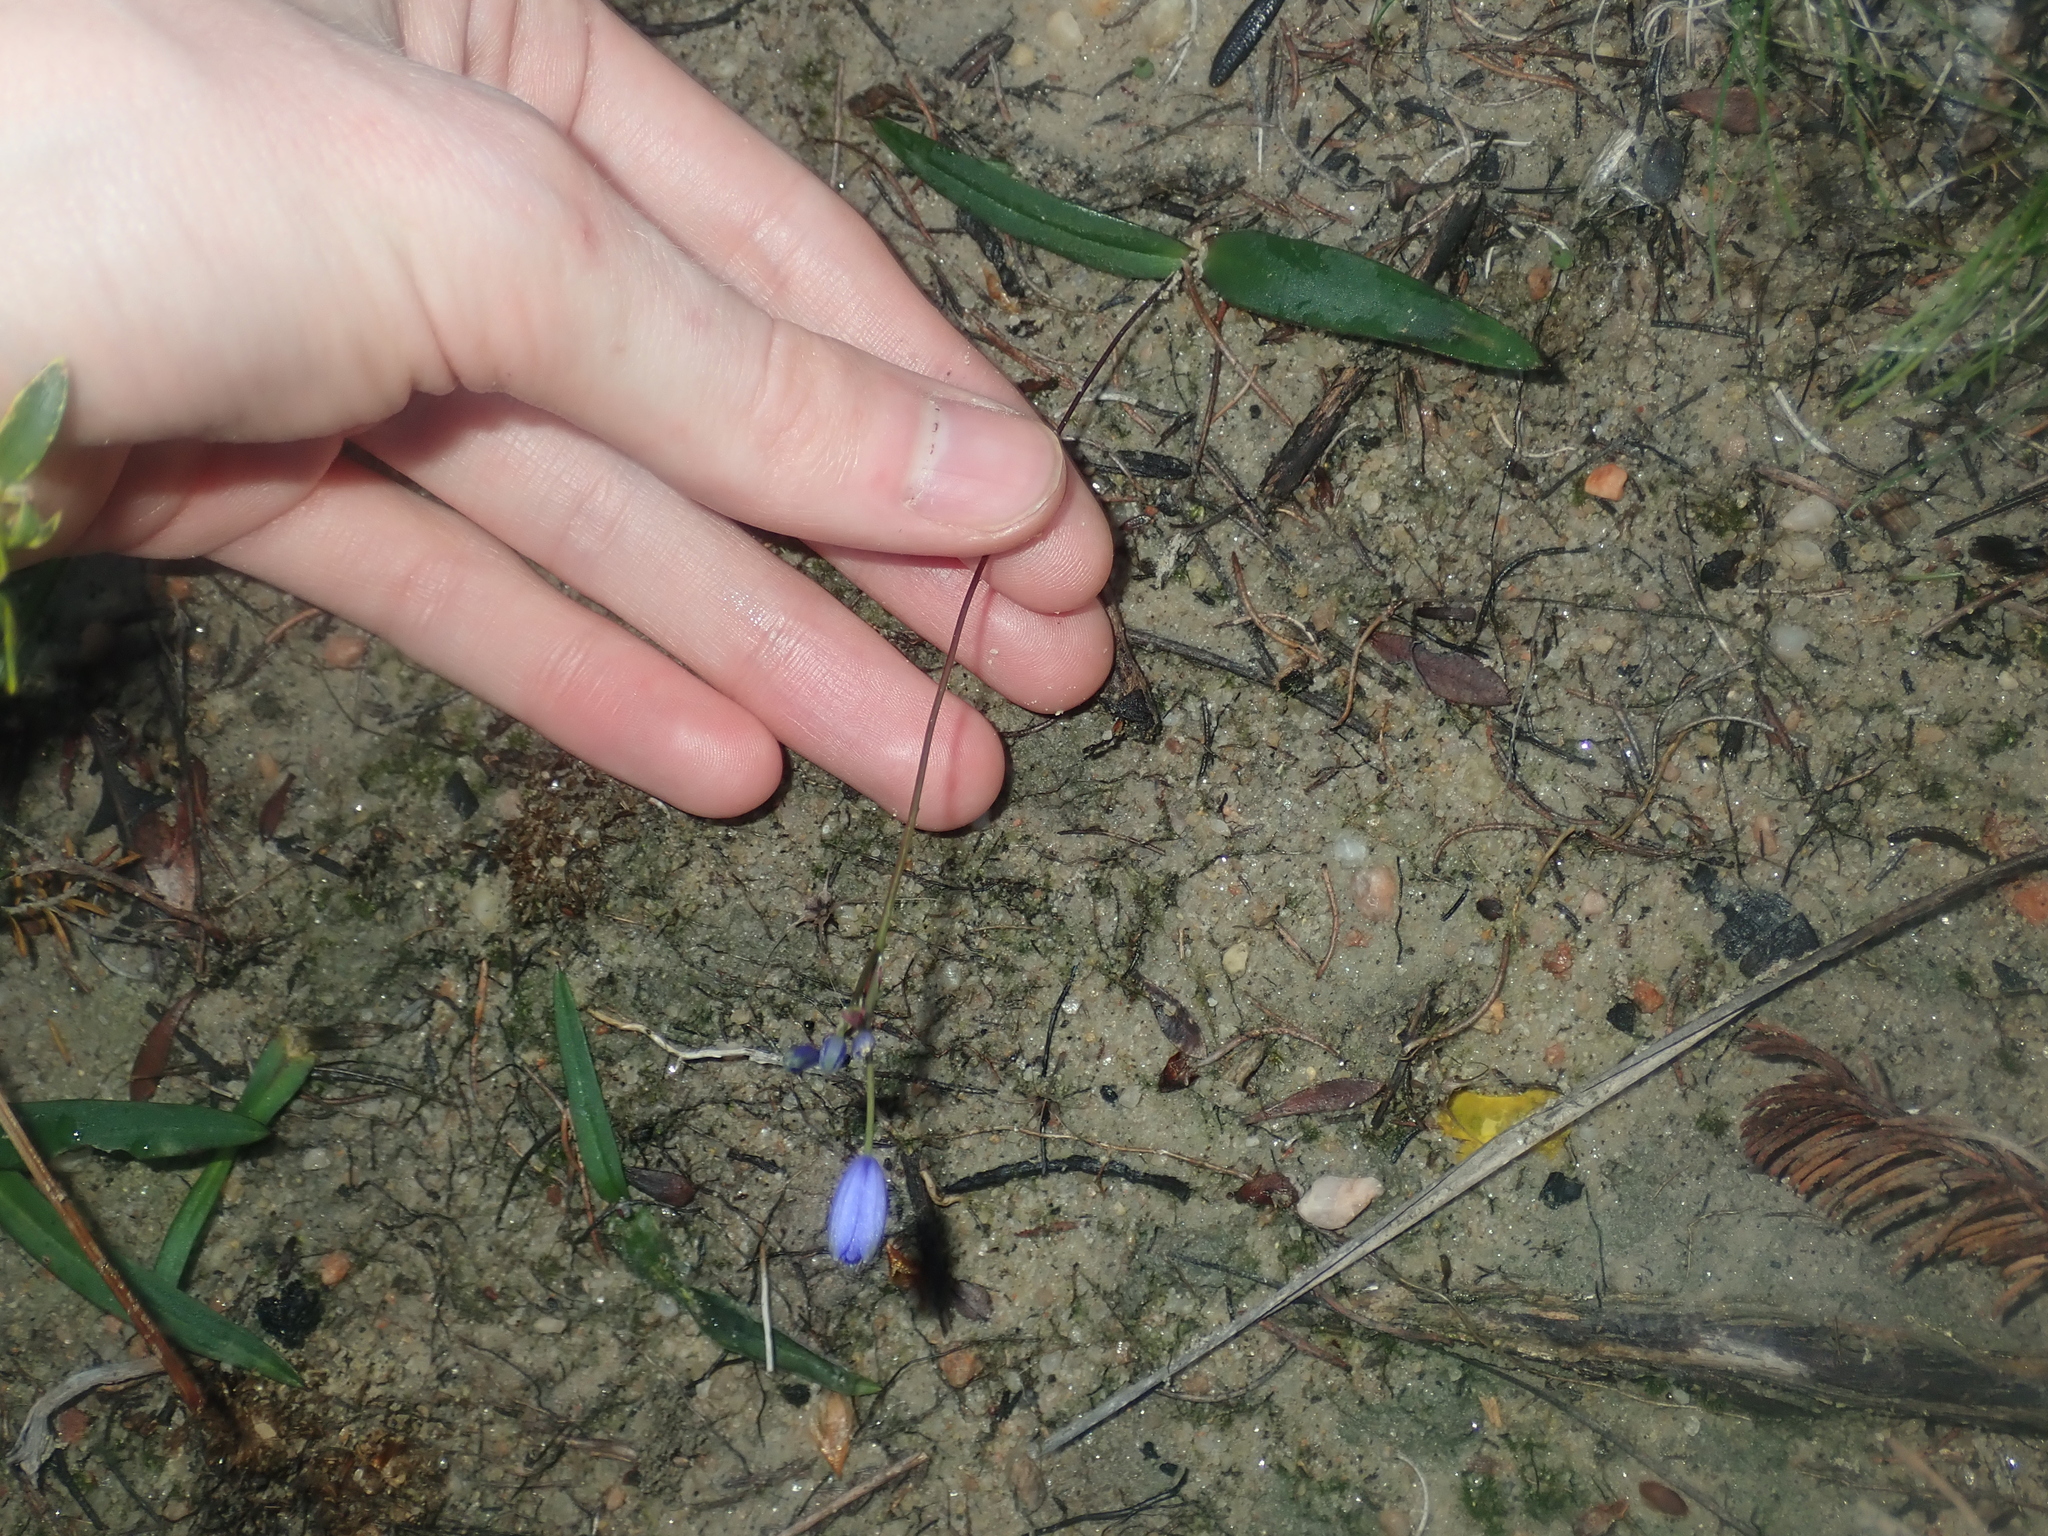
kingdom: Plantae
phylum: Tracheophyta
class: Liliopsida
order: Asparagales
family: Asphodelaceae
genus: Chamaescilla
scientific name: Chamaescilla corymbosa
